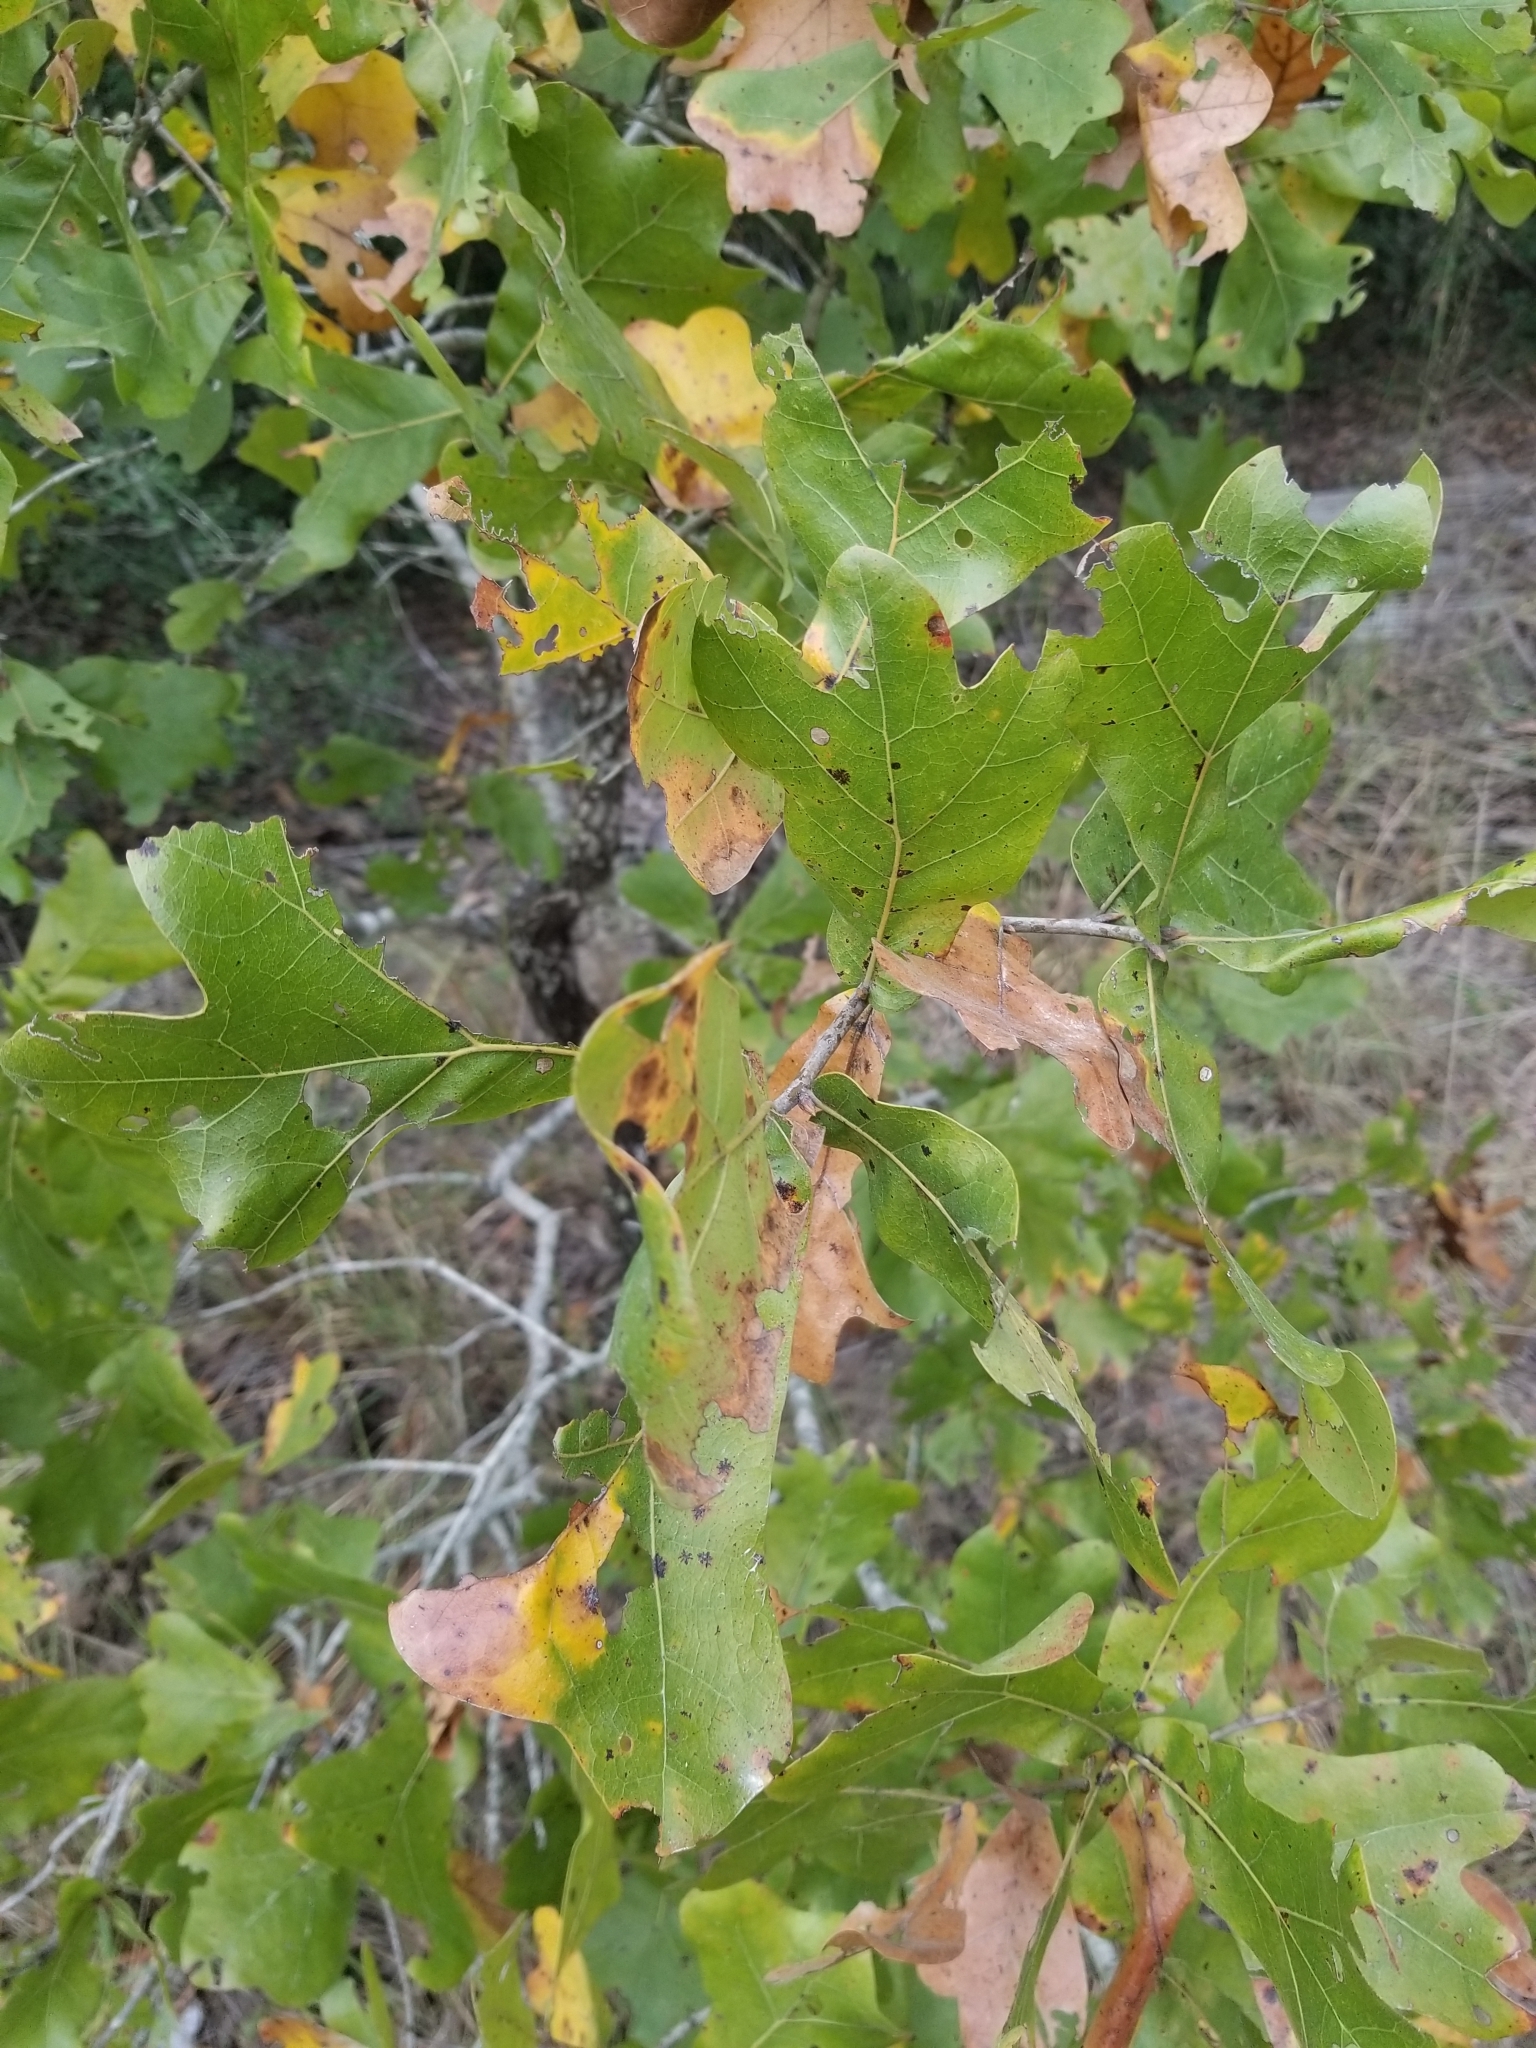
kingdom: Plantae
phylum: Tracheophyta
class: Magnoliopsida
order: Fagales
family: Fagaceae
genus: Quercus
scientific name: Quercus marilandica
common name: Blackjack oak
